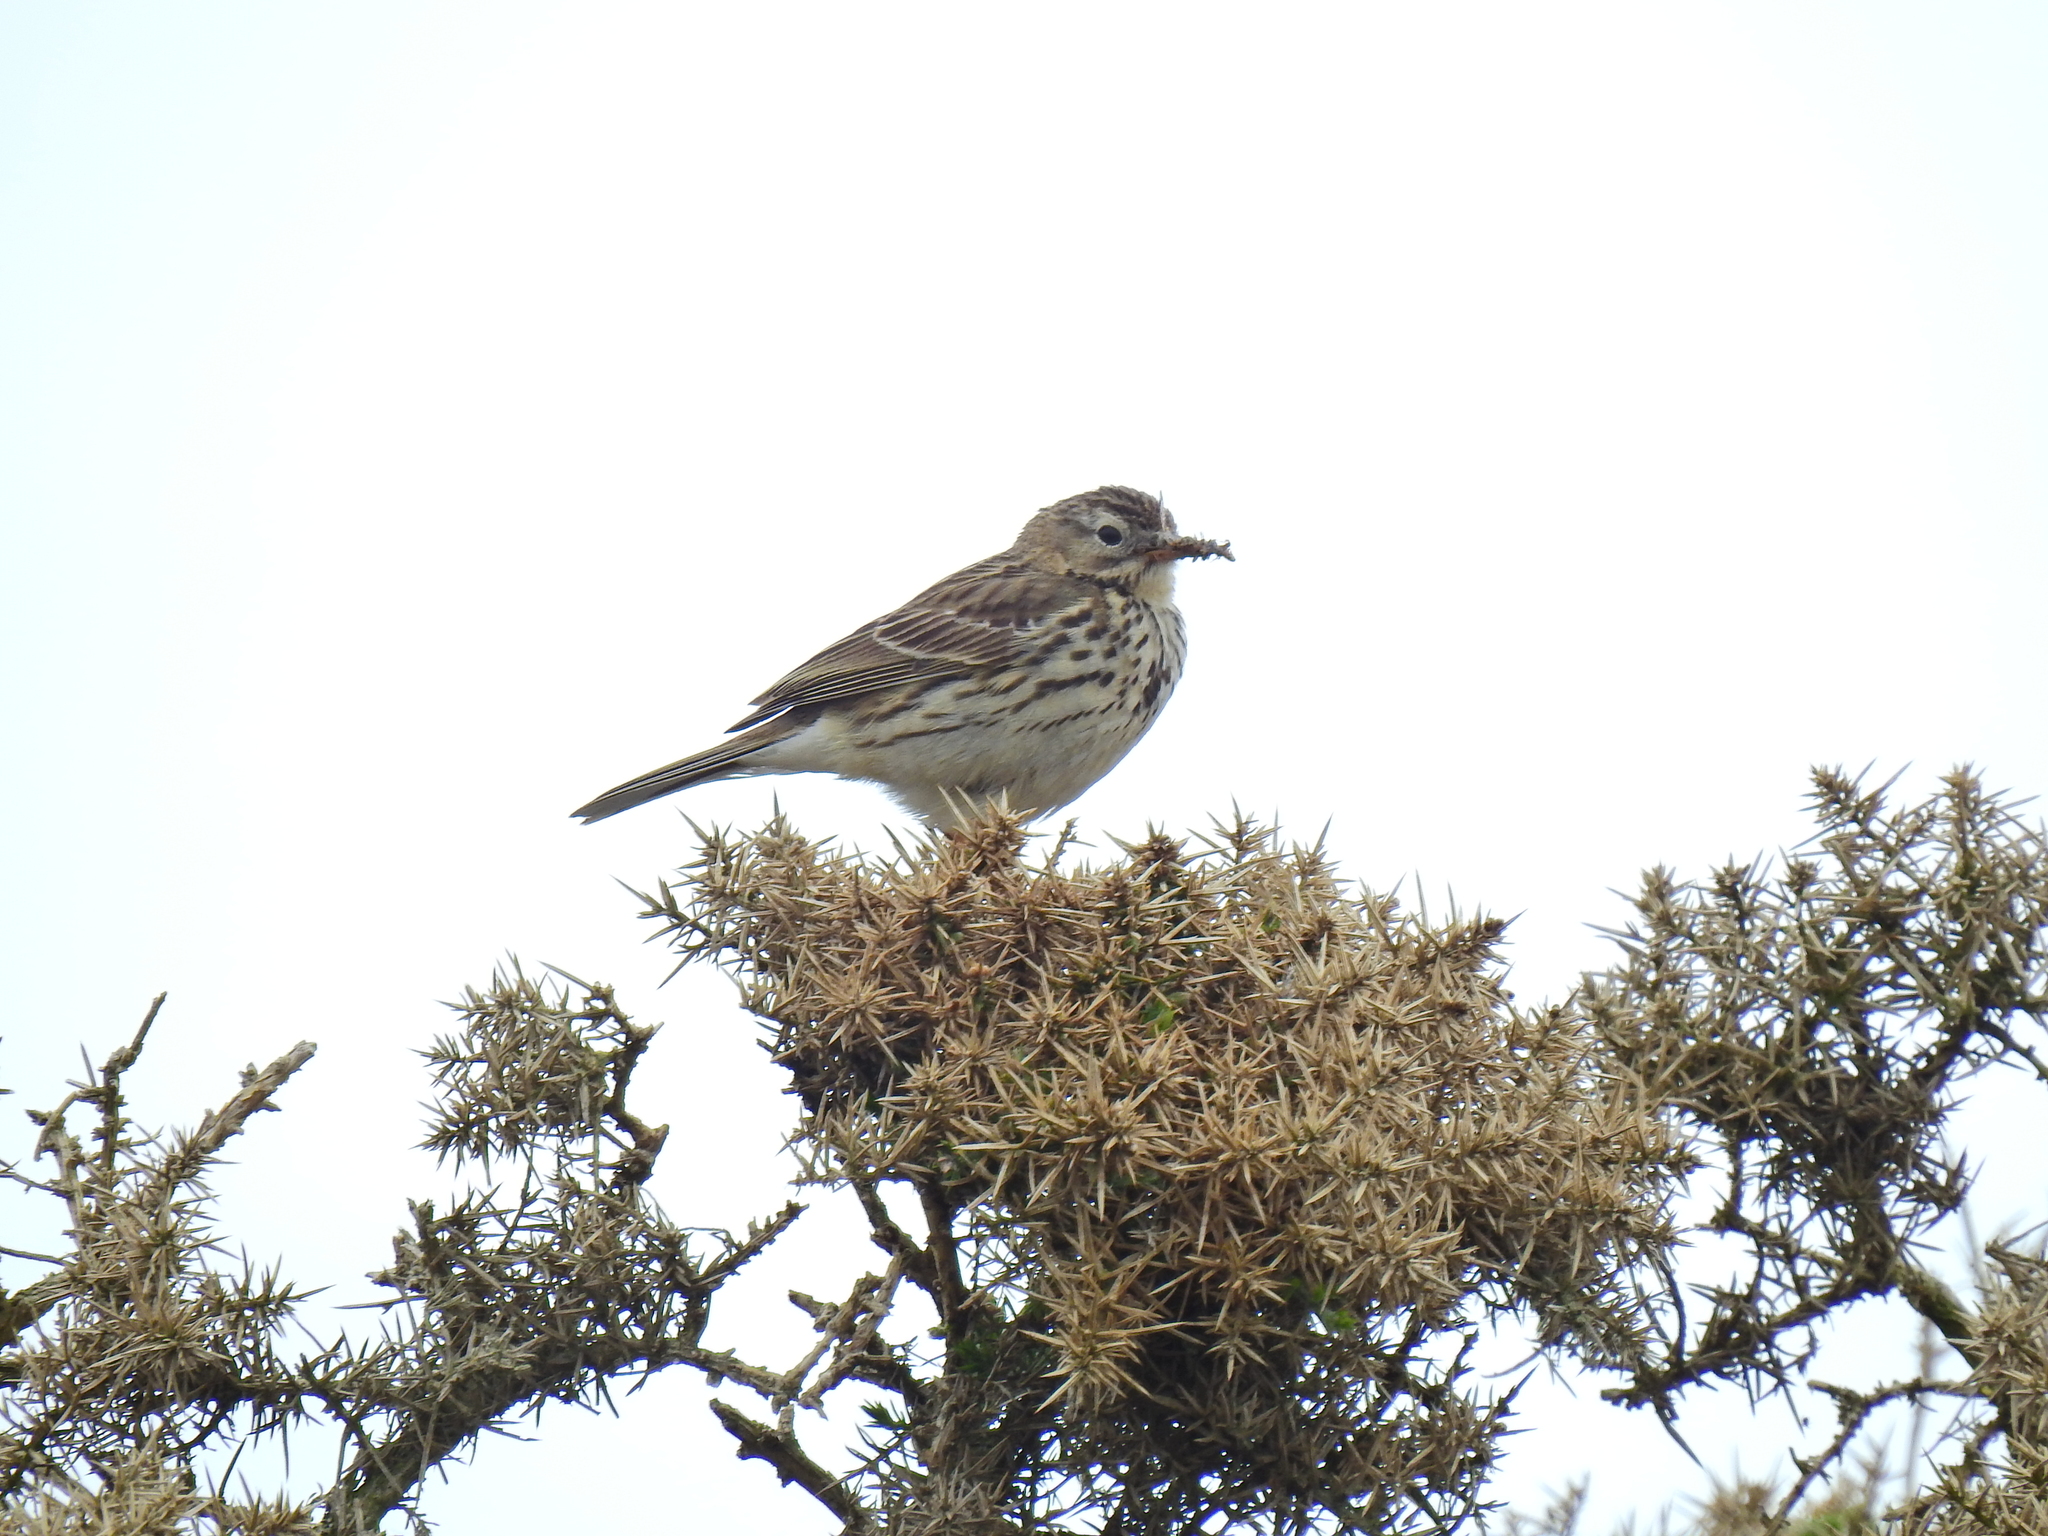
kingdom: Animalia
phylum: Chordata
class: Aves
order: Passeriformes
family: Motacillidae
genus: Anthus
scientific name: Anthus pratensis
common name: Meadow pipit
